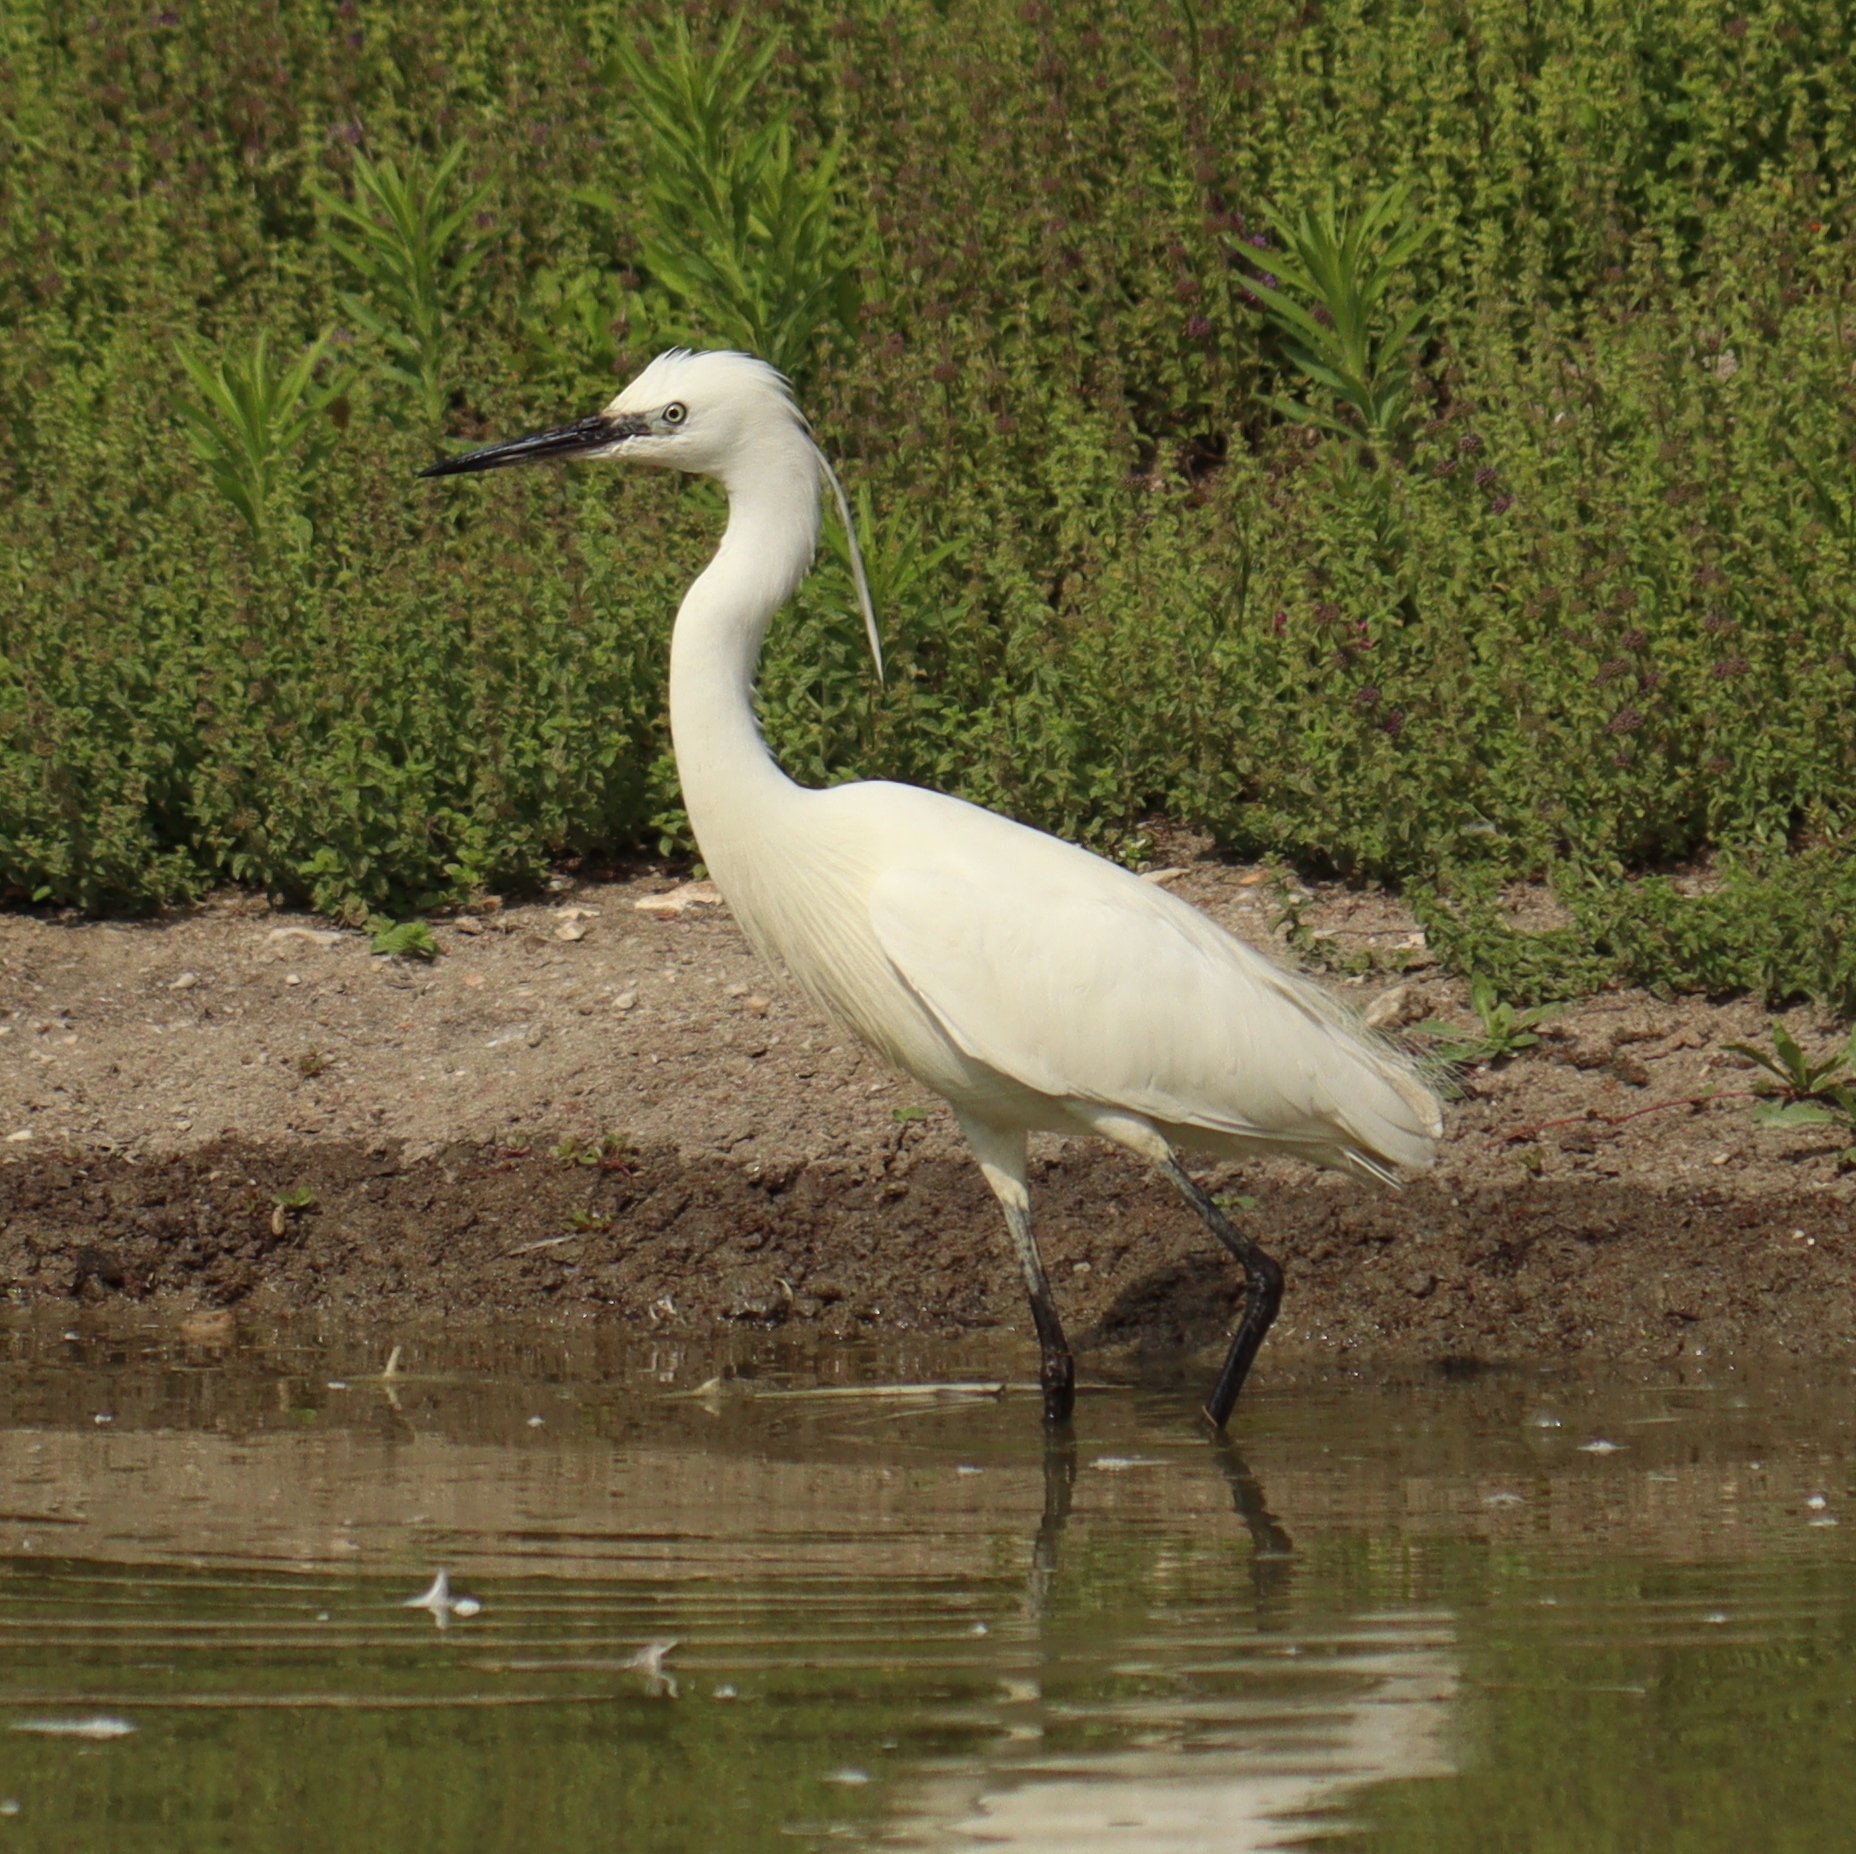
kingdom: Animalia
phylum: Chordata
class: Aves
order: Pelecaniformes
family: Ardeidae
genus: Egretta
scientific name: Egretta garzetta
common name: Little egret
